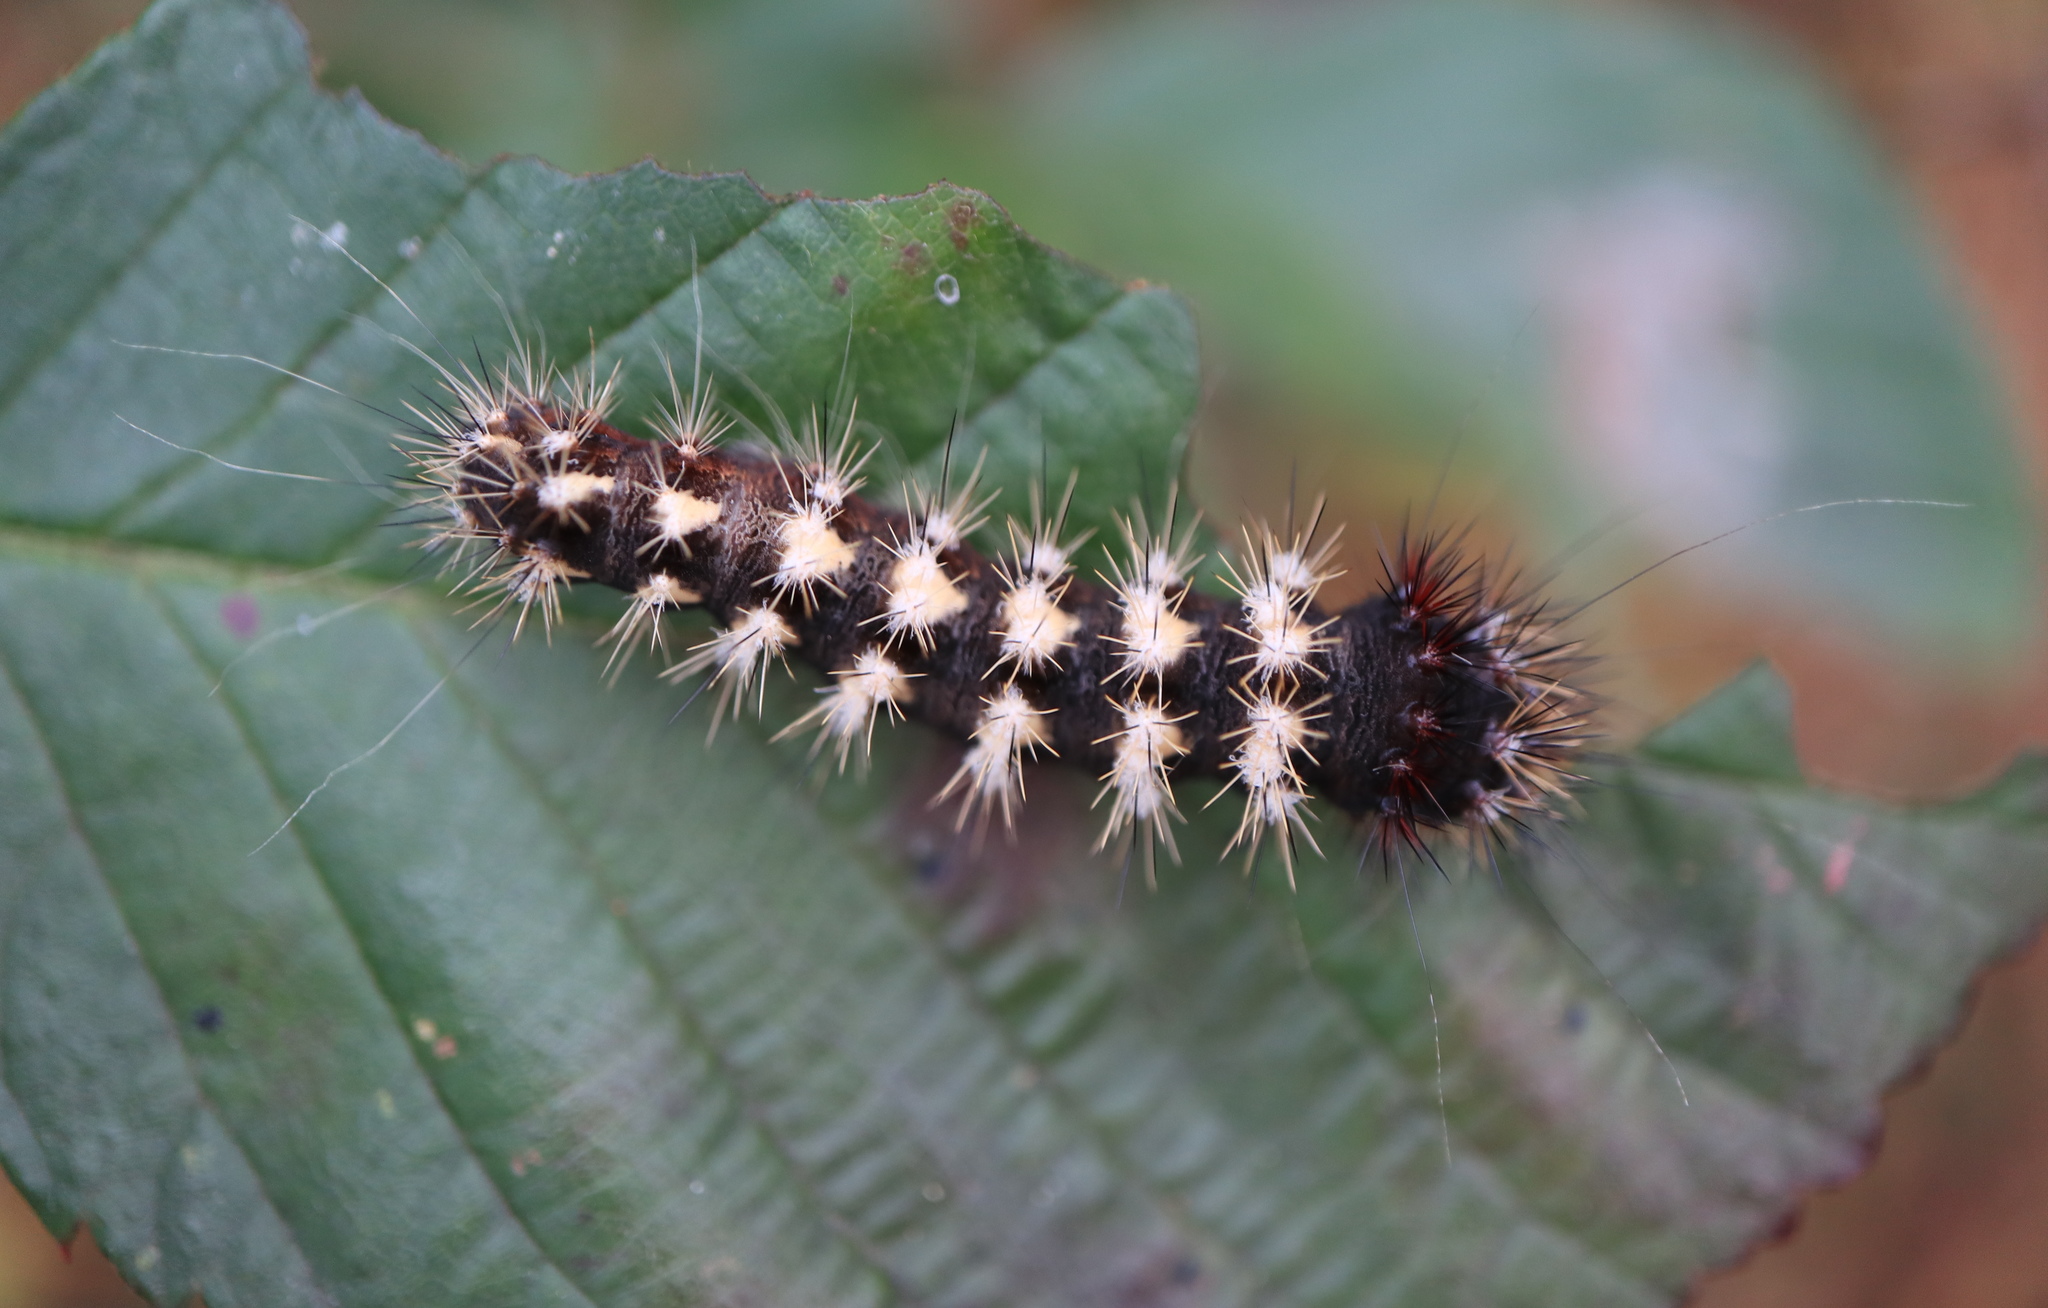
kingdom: Animalia
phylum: Arthropoda
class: Insecta
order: Lepidoptera
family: Noctuidae
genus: Acronicta
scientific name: Acronicta longa
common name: Long-winged dagger
